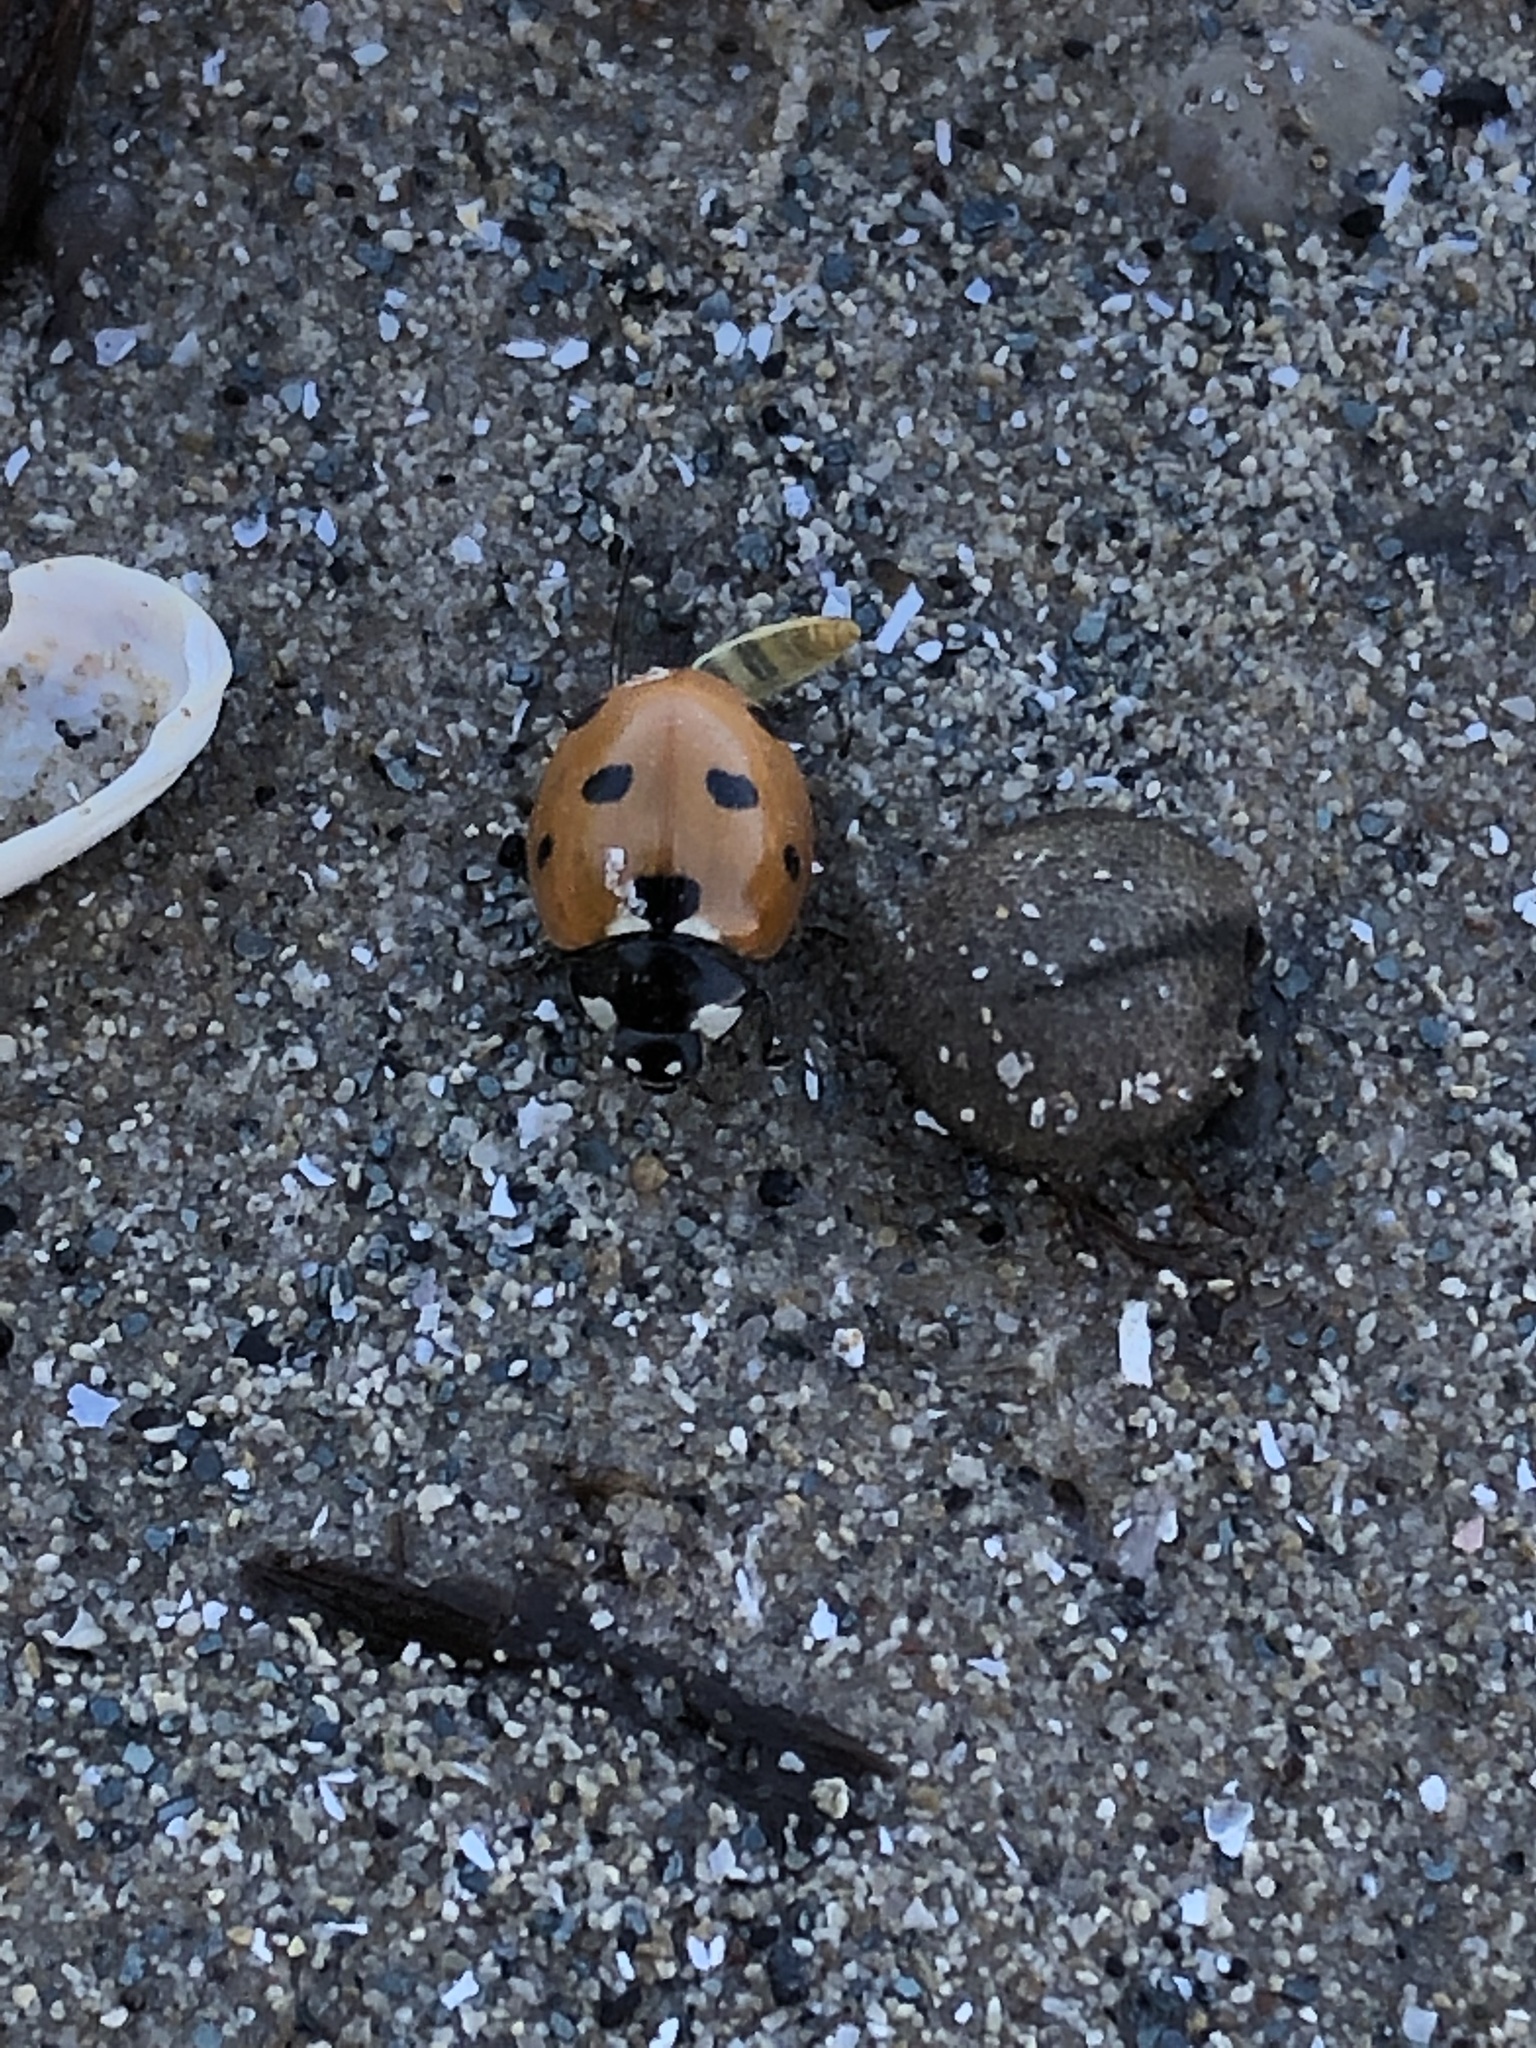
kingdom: Animalia
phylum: Arthropoda
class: Insecta
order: Coleoptera
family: Coccinellidae
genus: Coccinella
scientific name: Coccinella septempunctata
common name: Sevenspotted lady beetle
